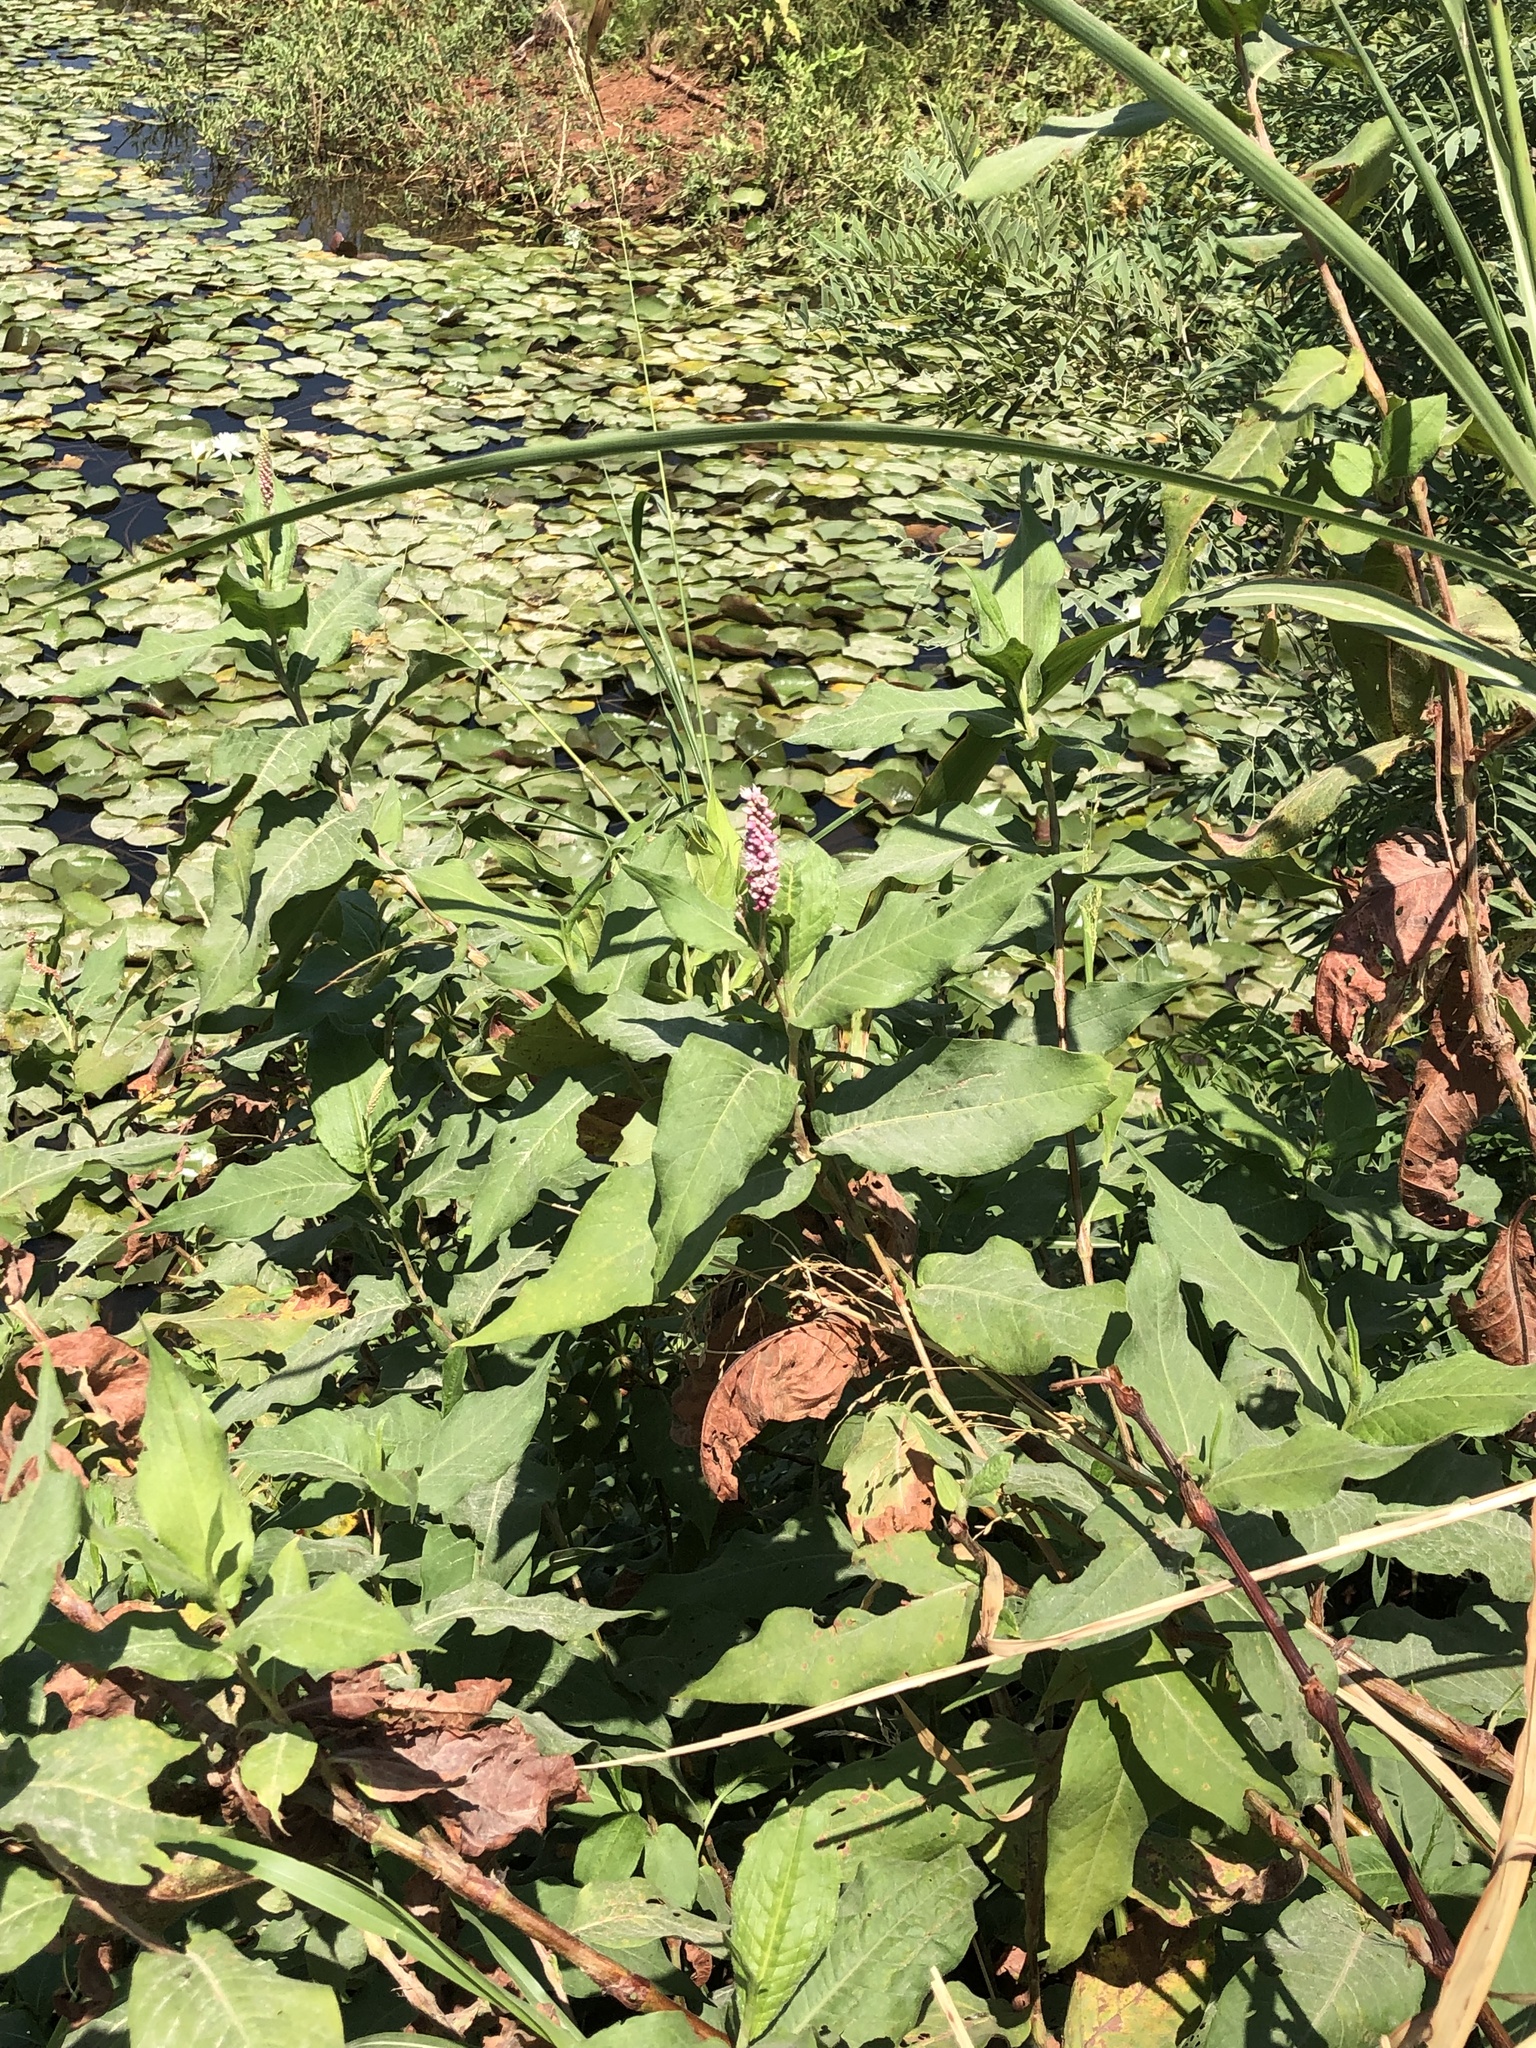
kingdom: Plantae
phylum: Tracheophyta
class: Magnoliopsida
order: Caryophyllales
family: Polygonaceae
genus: Persicaria
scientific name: Persicaria amphibia
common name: Amphibious bistort
